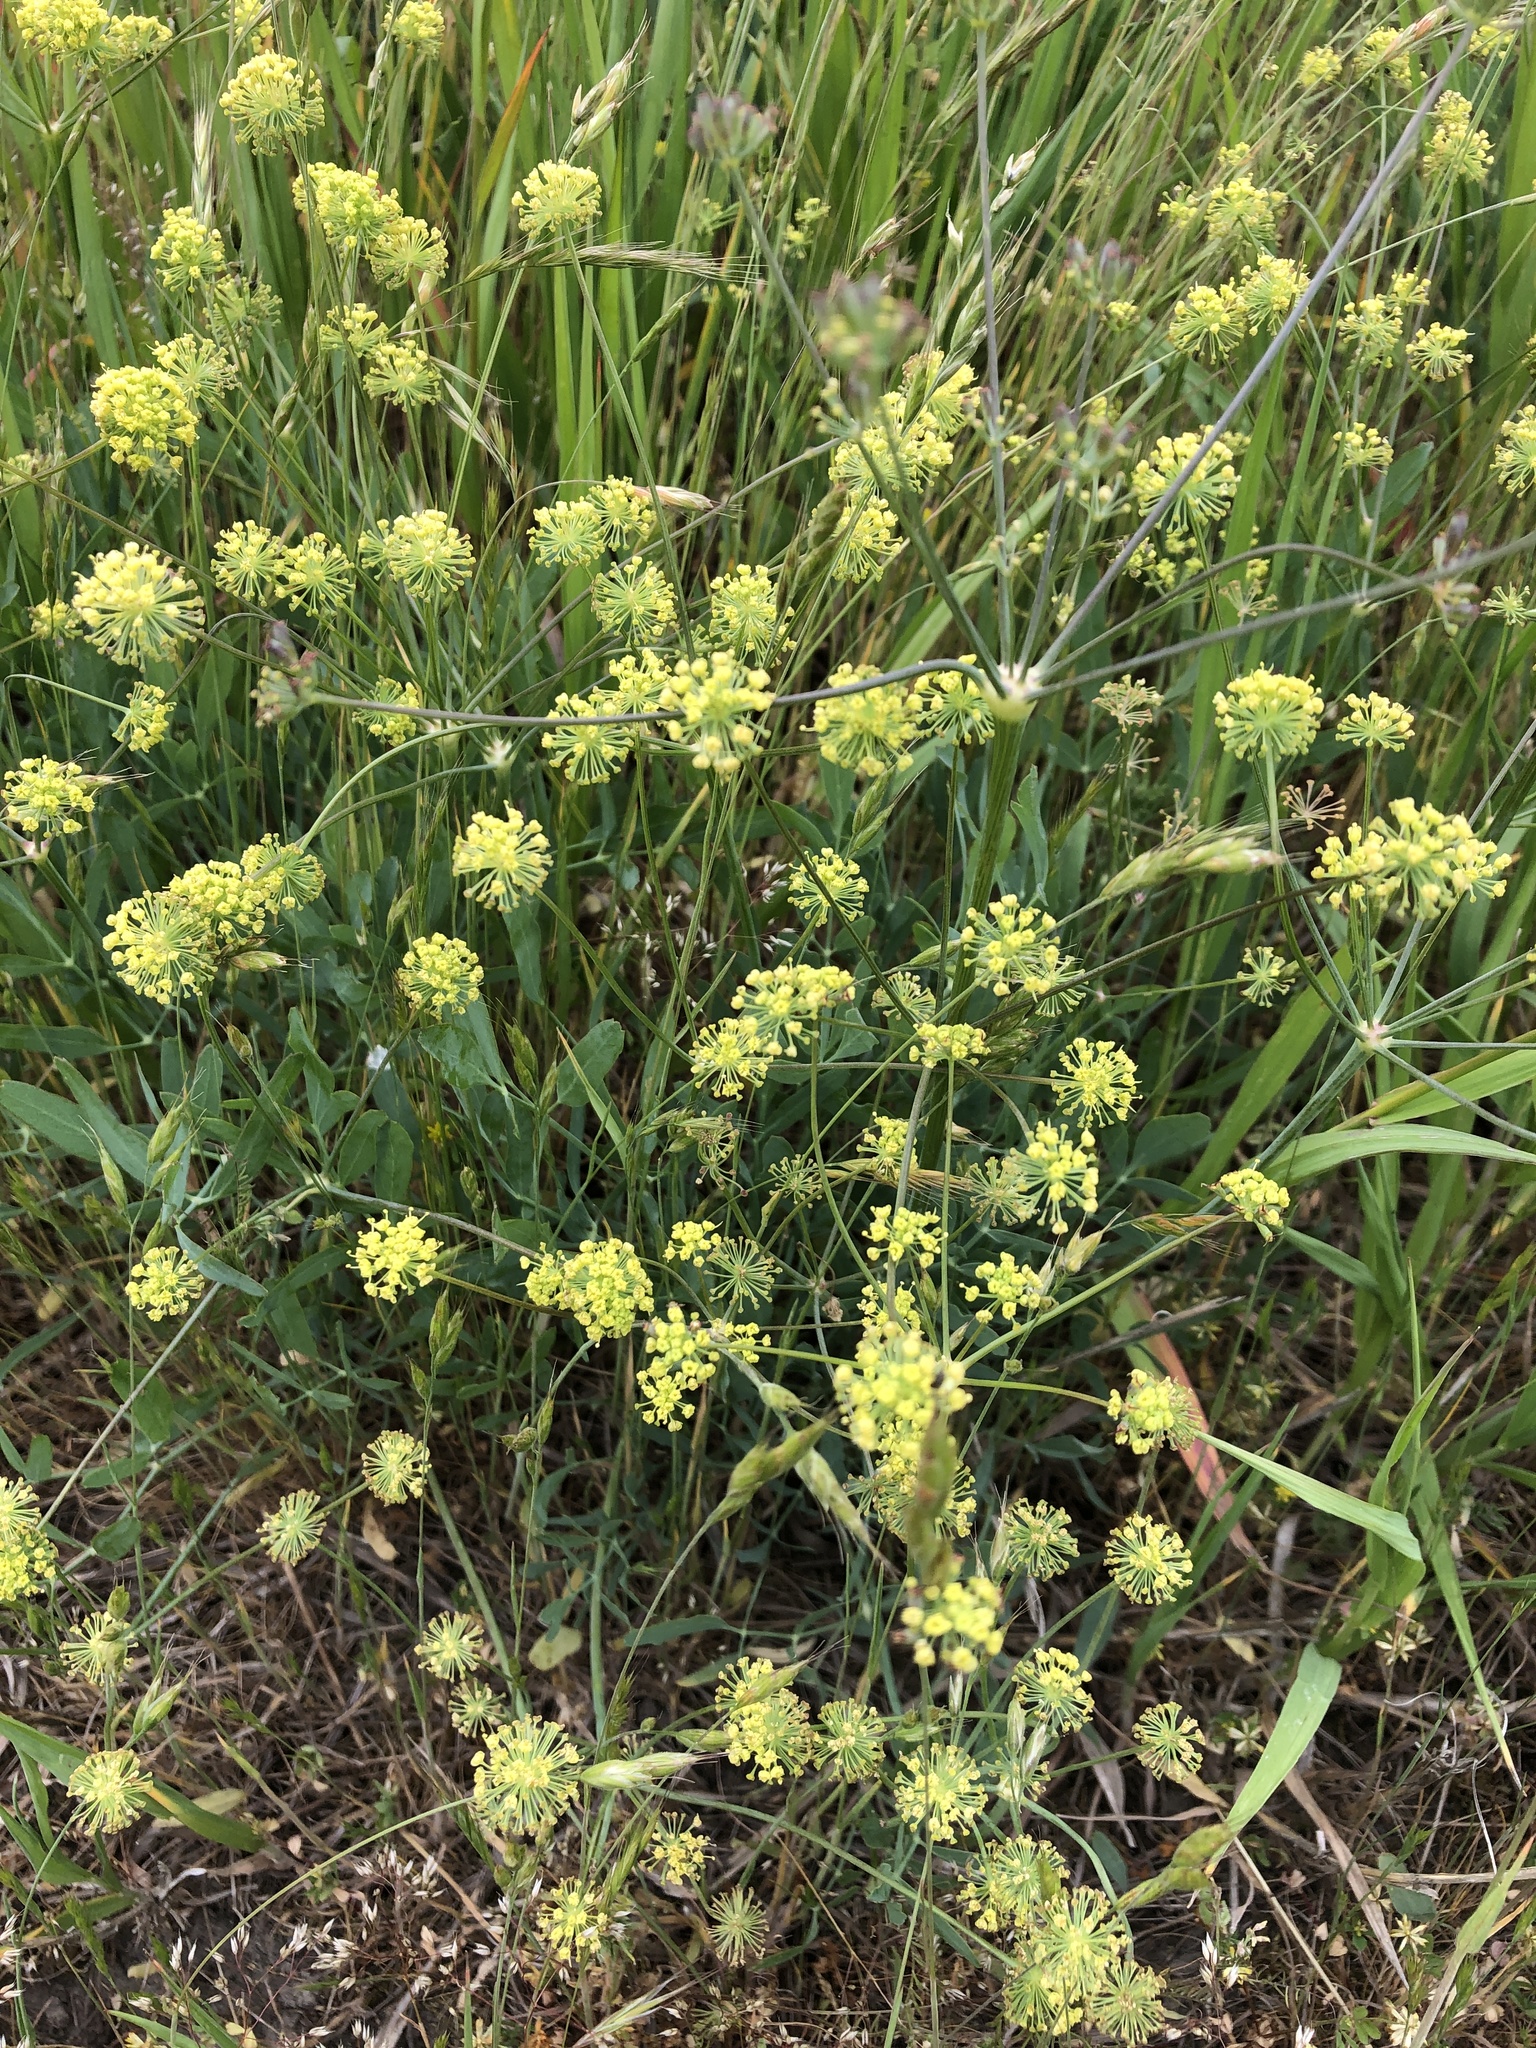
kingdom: Plantae
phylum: Tracheophyta
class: Magnoliopsida
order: Apiales
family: Apiaceae
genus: Lomatium
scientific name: Lomatium nudicaule
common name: Pestle lomatium
